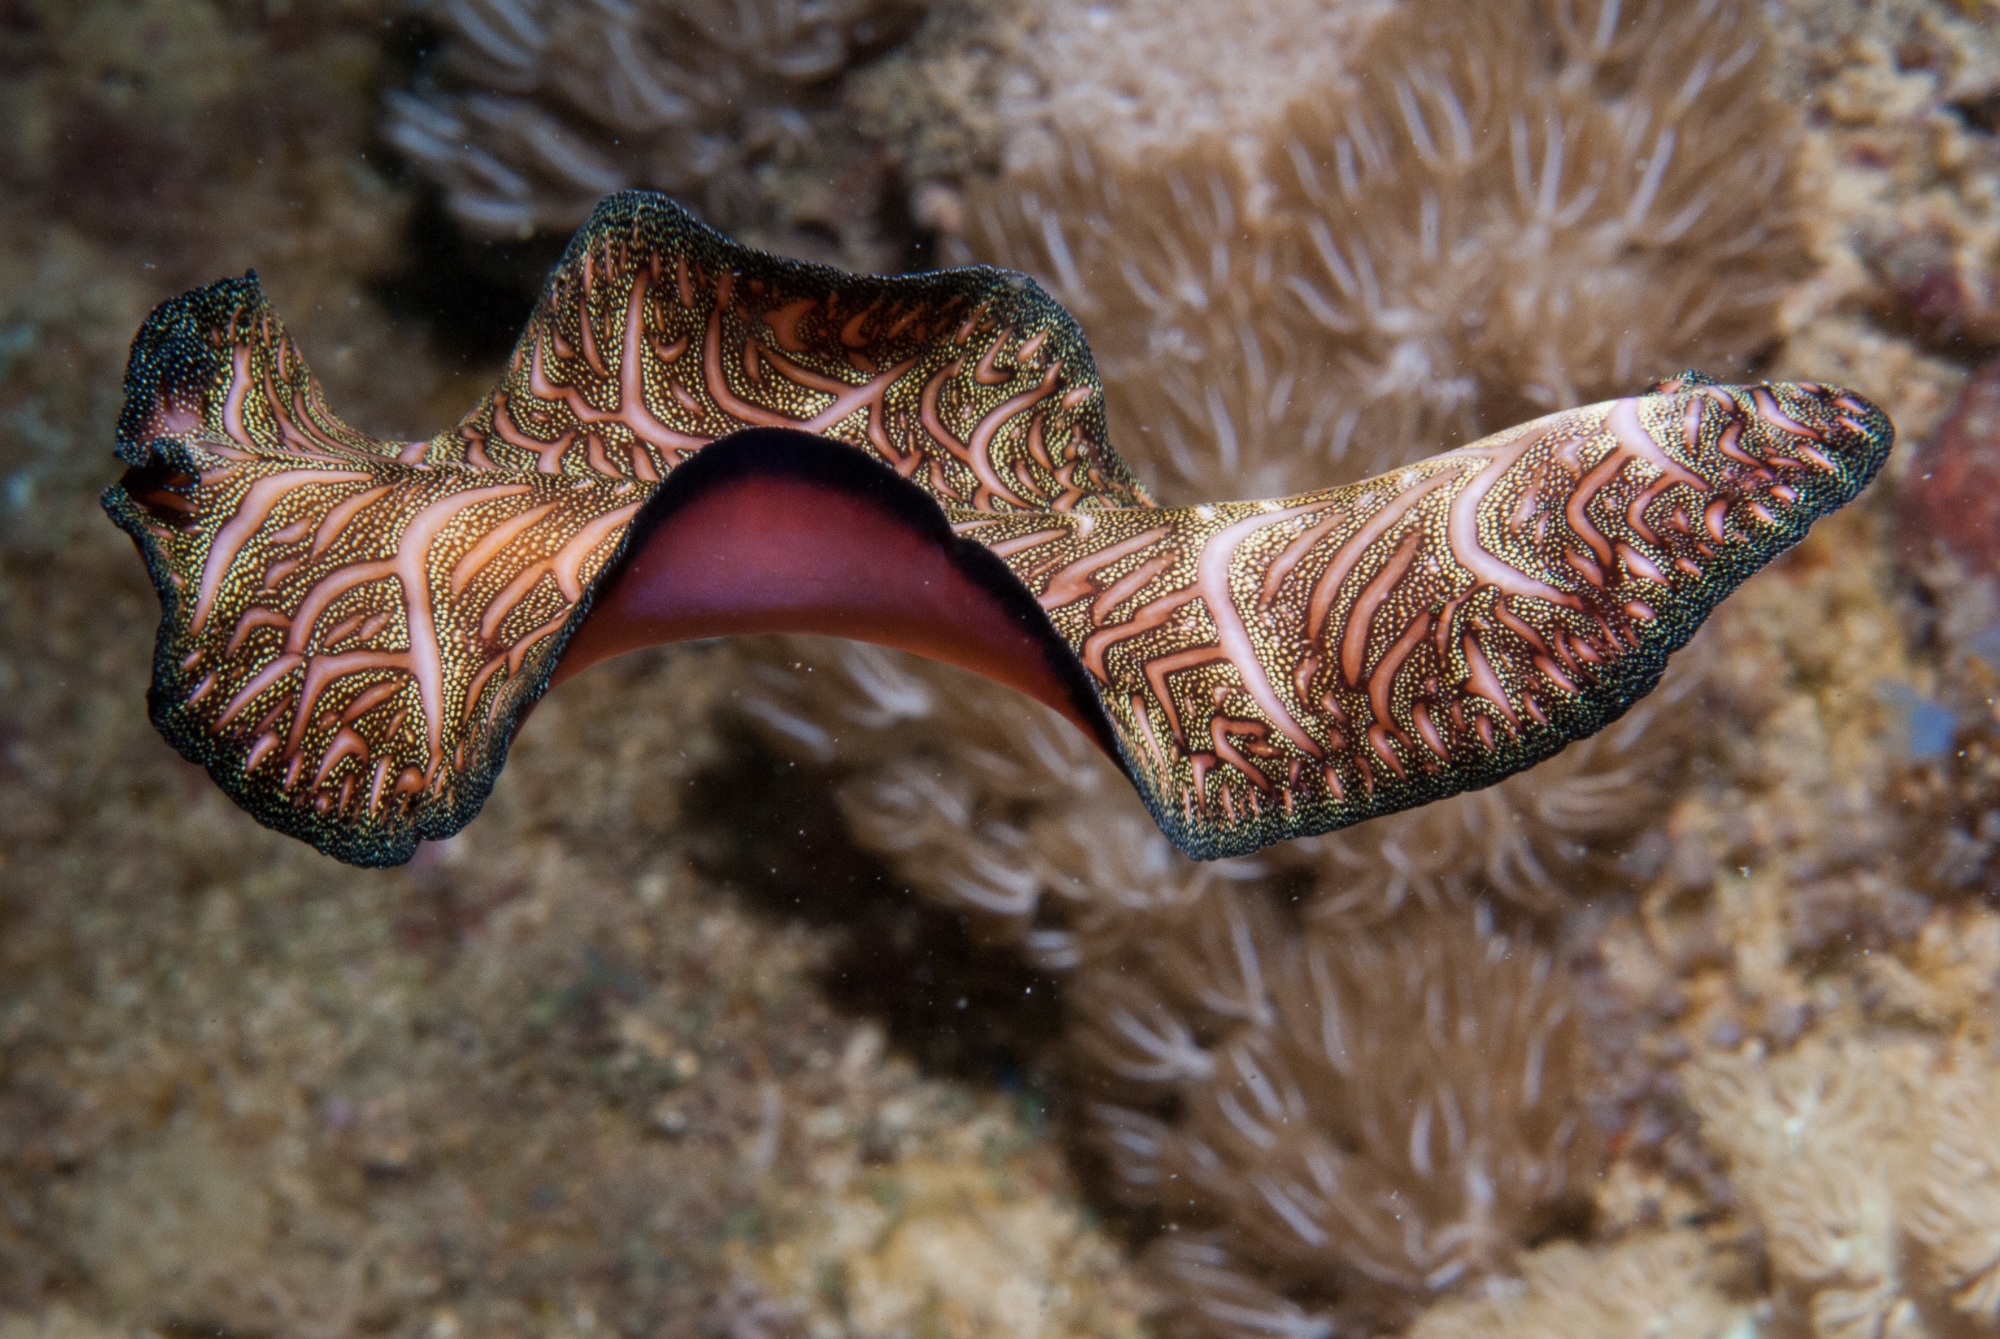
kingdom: Animalia
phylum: Platyhelminthes
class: Turbellaria
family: Pseudocerotidae
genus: Pseudobiceros
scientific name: Pseudobiceros bedfordi
